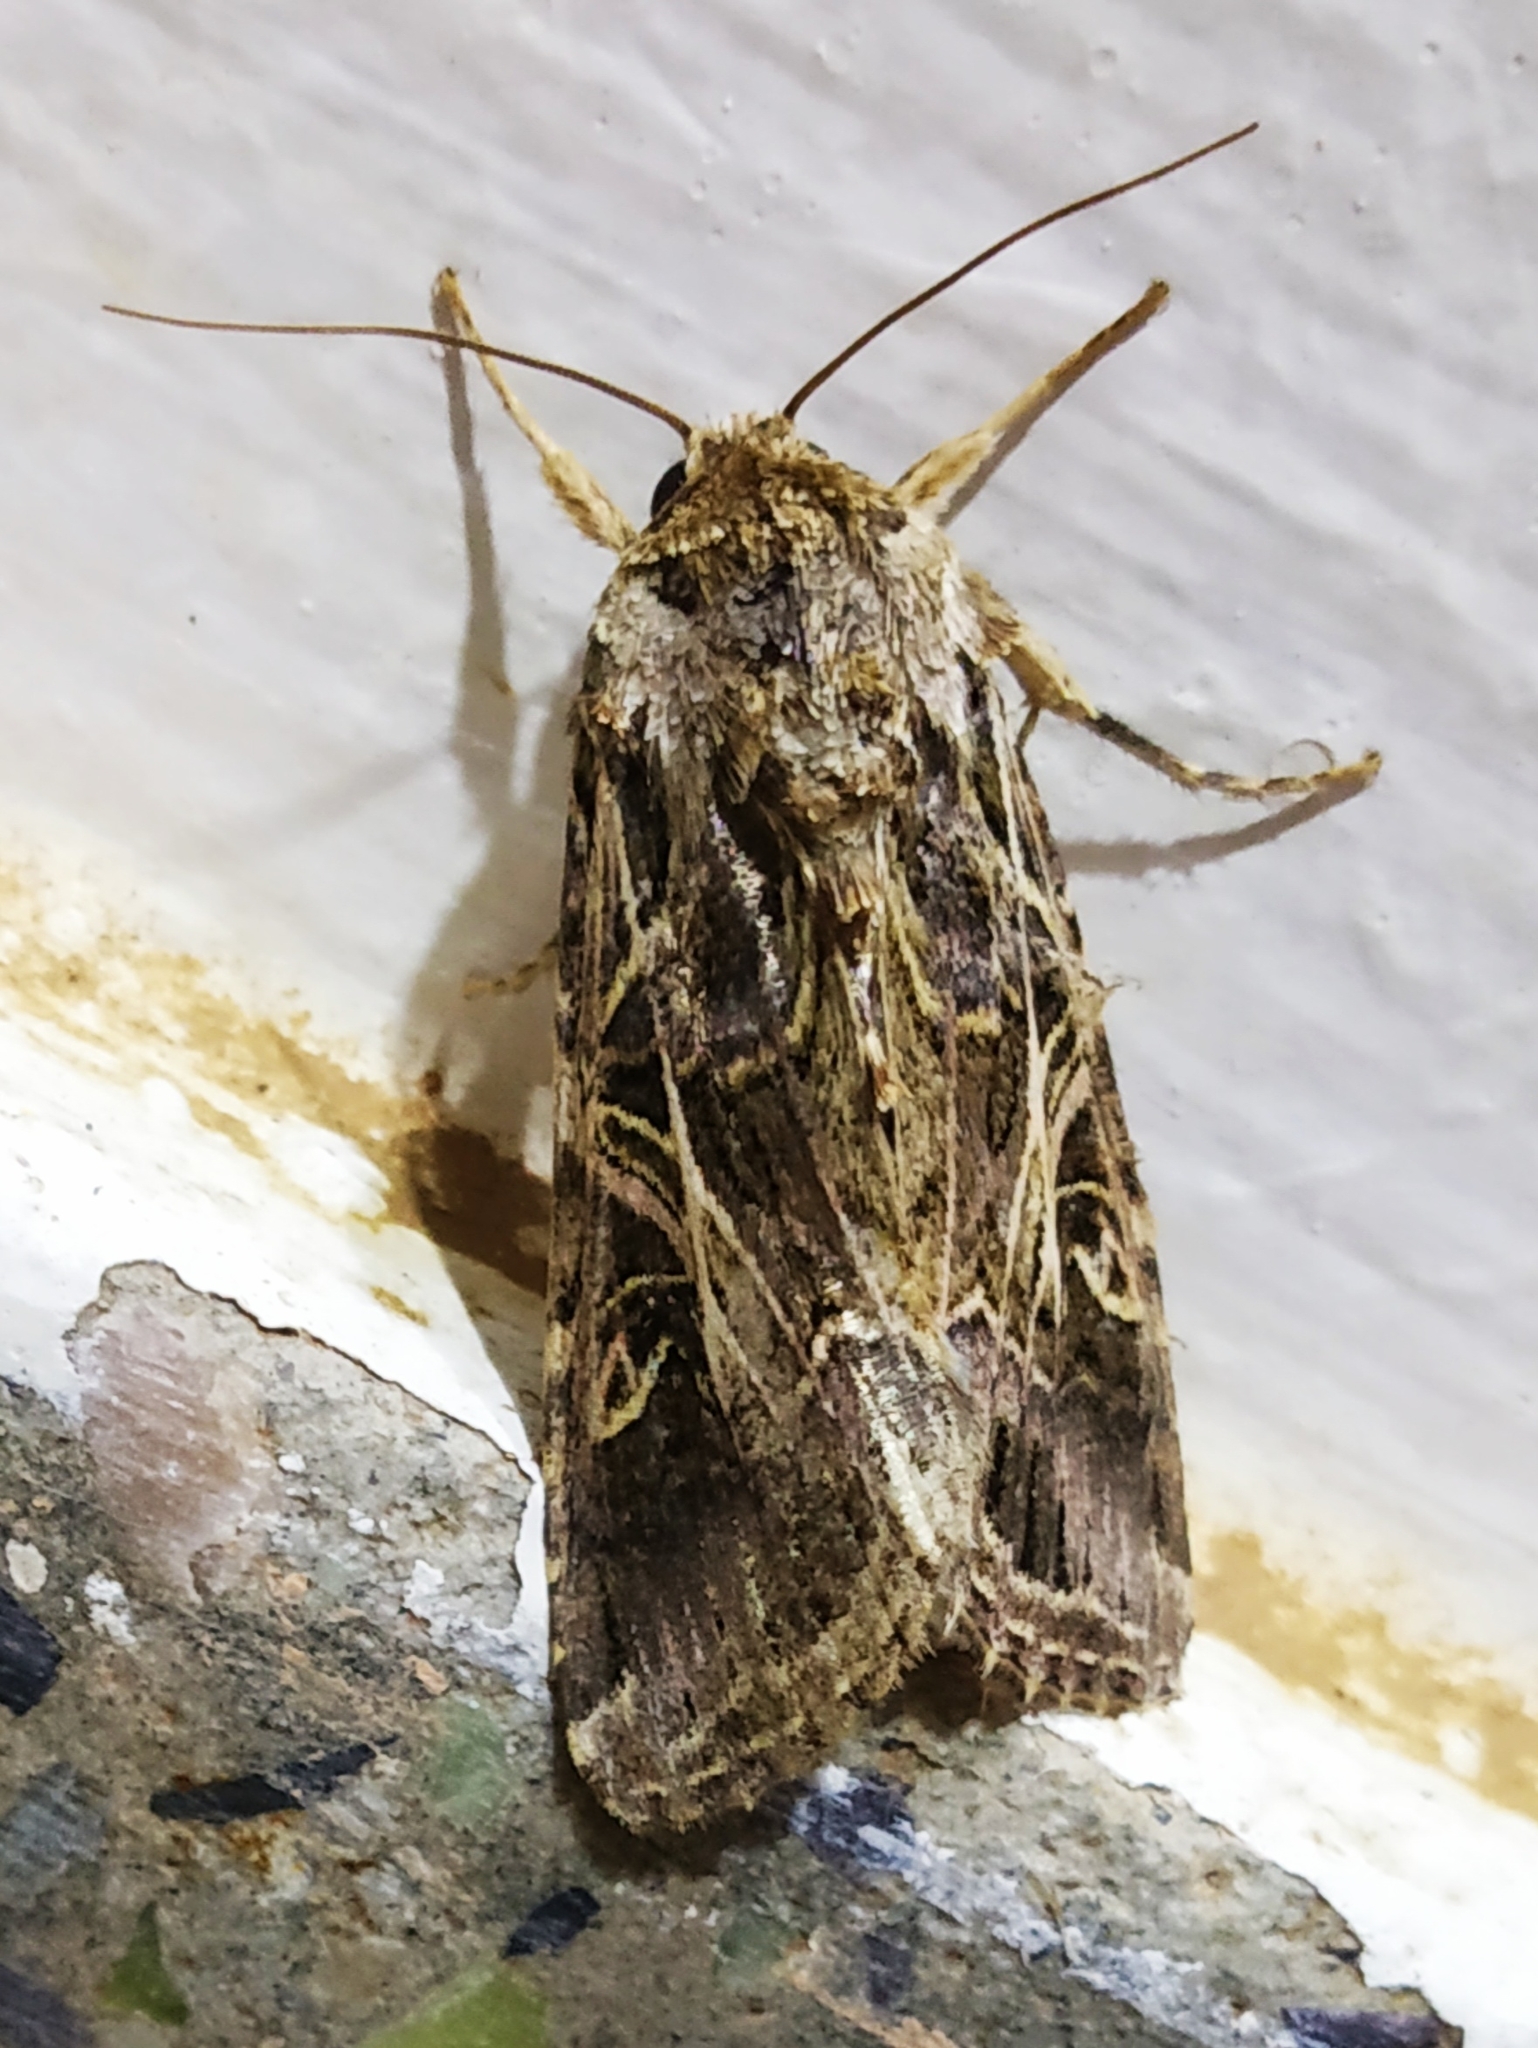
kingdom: Animalia
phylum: Arthropoda
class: Insecta
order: Lepidoptera
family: Noctuidae
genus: Spodoptera
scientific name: Spodoptera litura
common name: Asian cotton leafworm
